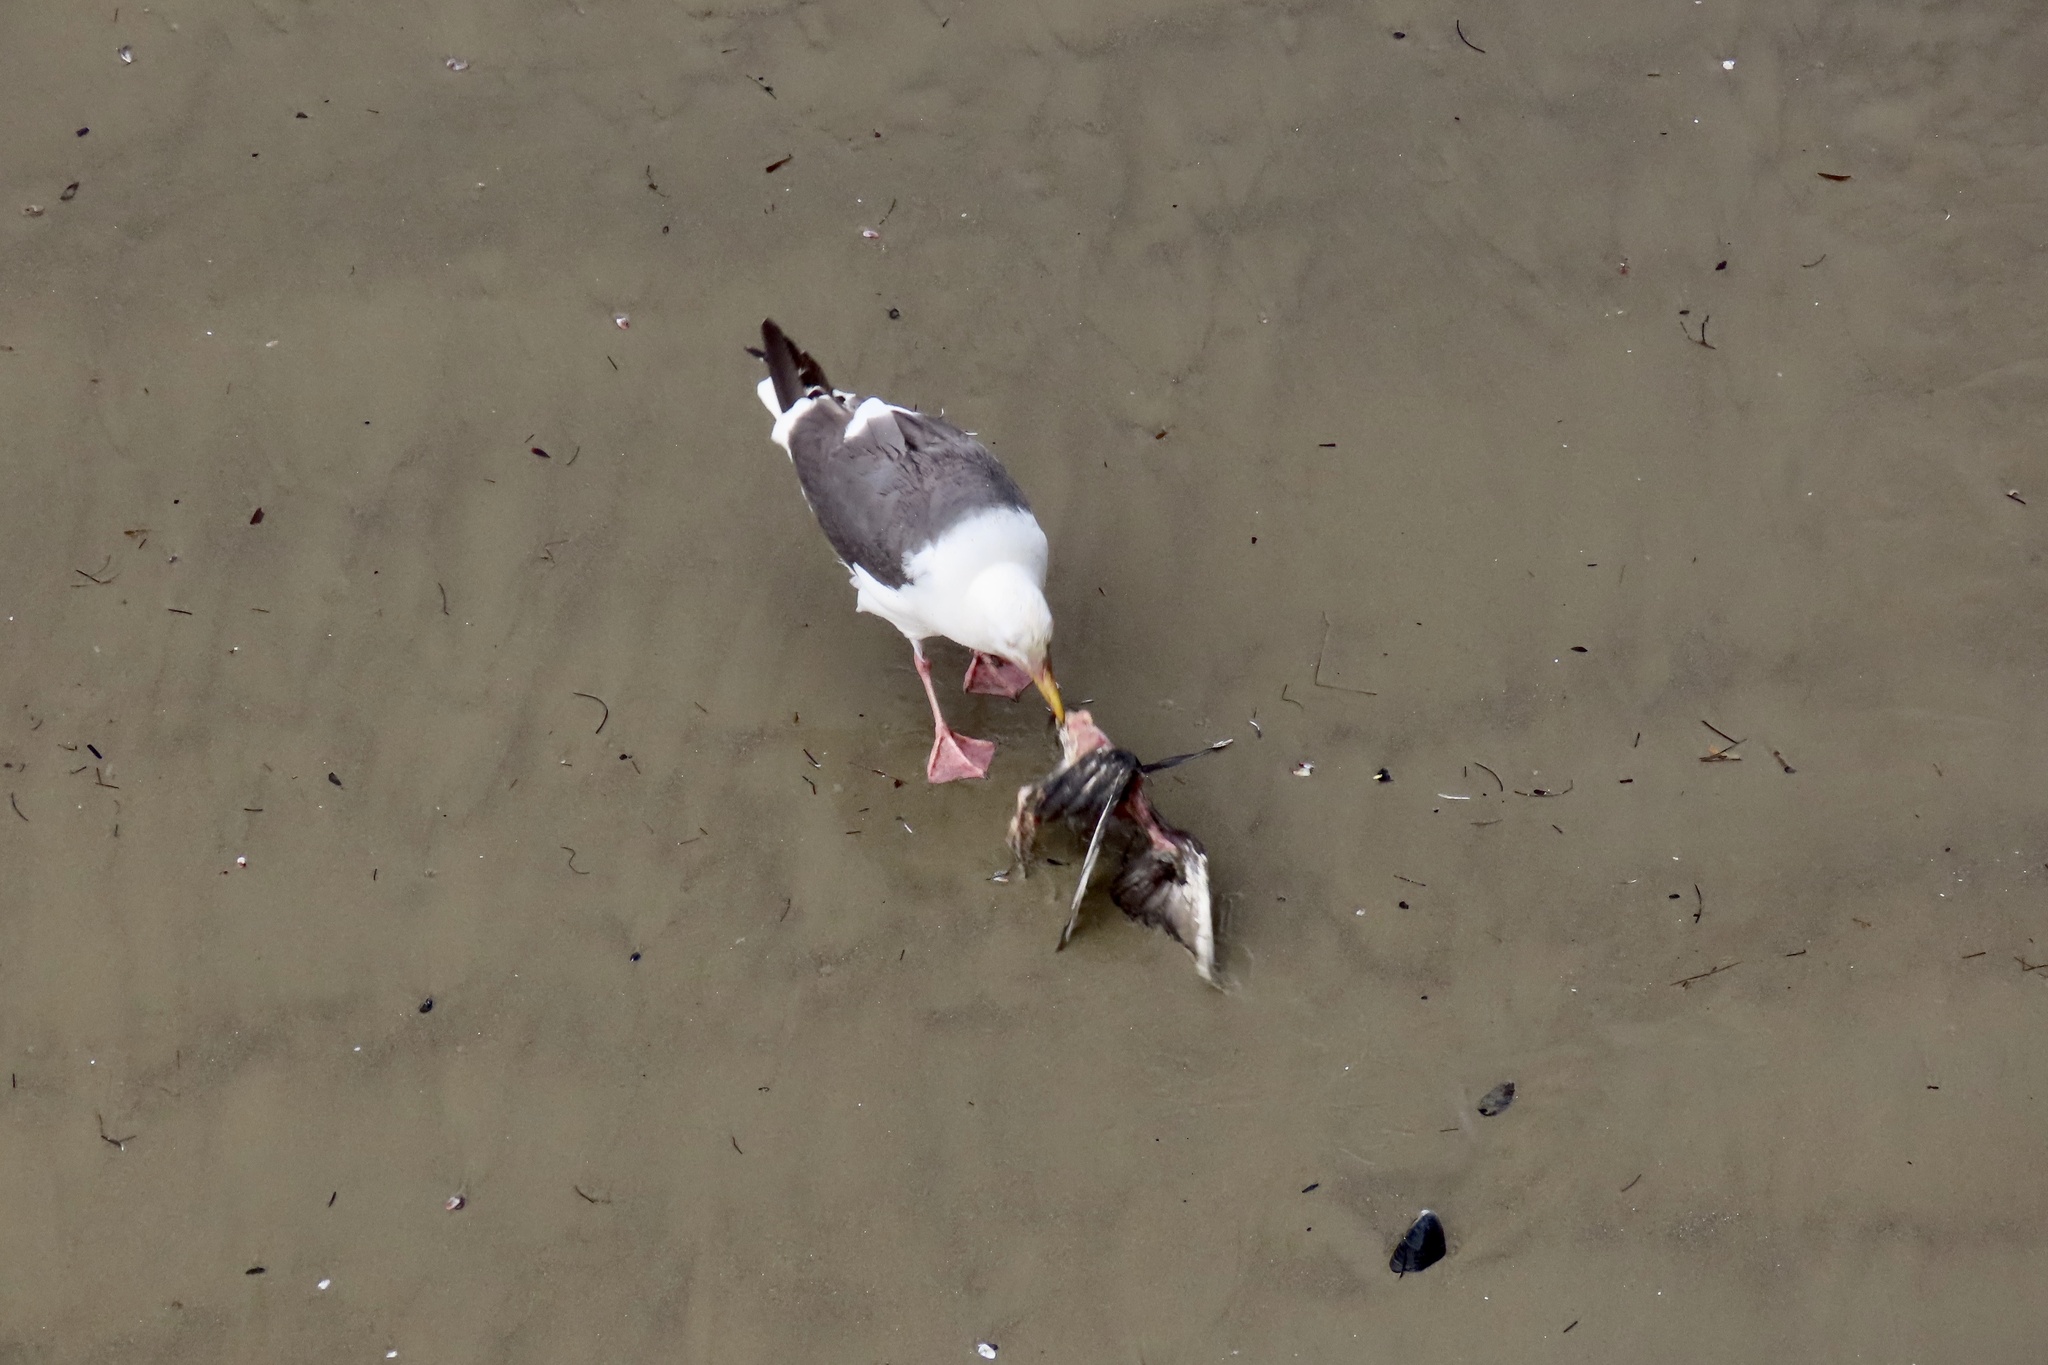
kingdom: Animalia
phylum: Chordata
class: Aves
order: Charadriiformes
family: Laridae
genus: Larus
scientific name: Larus occidentalis
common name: Western gull
